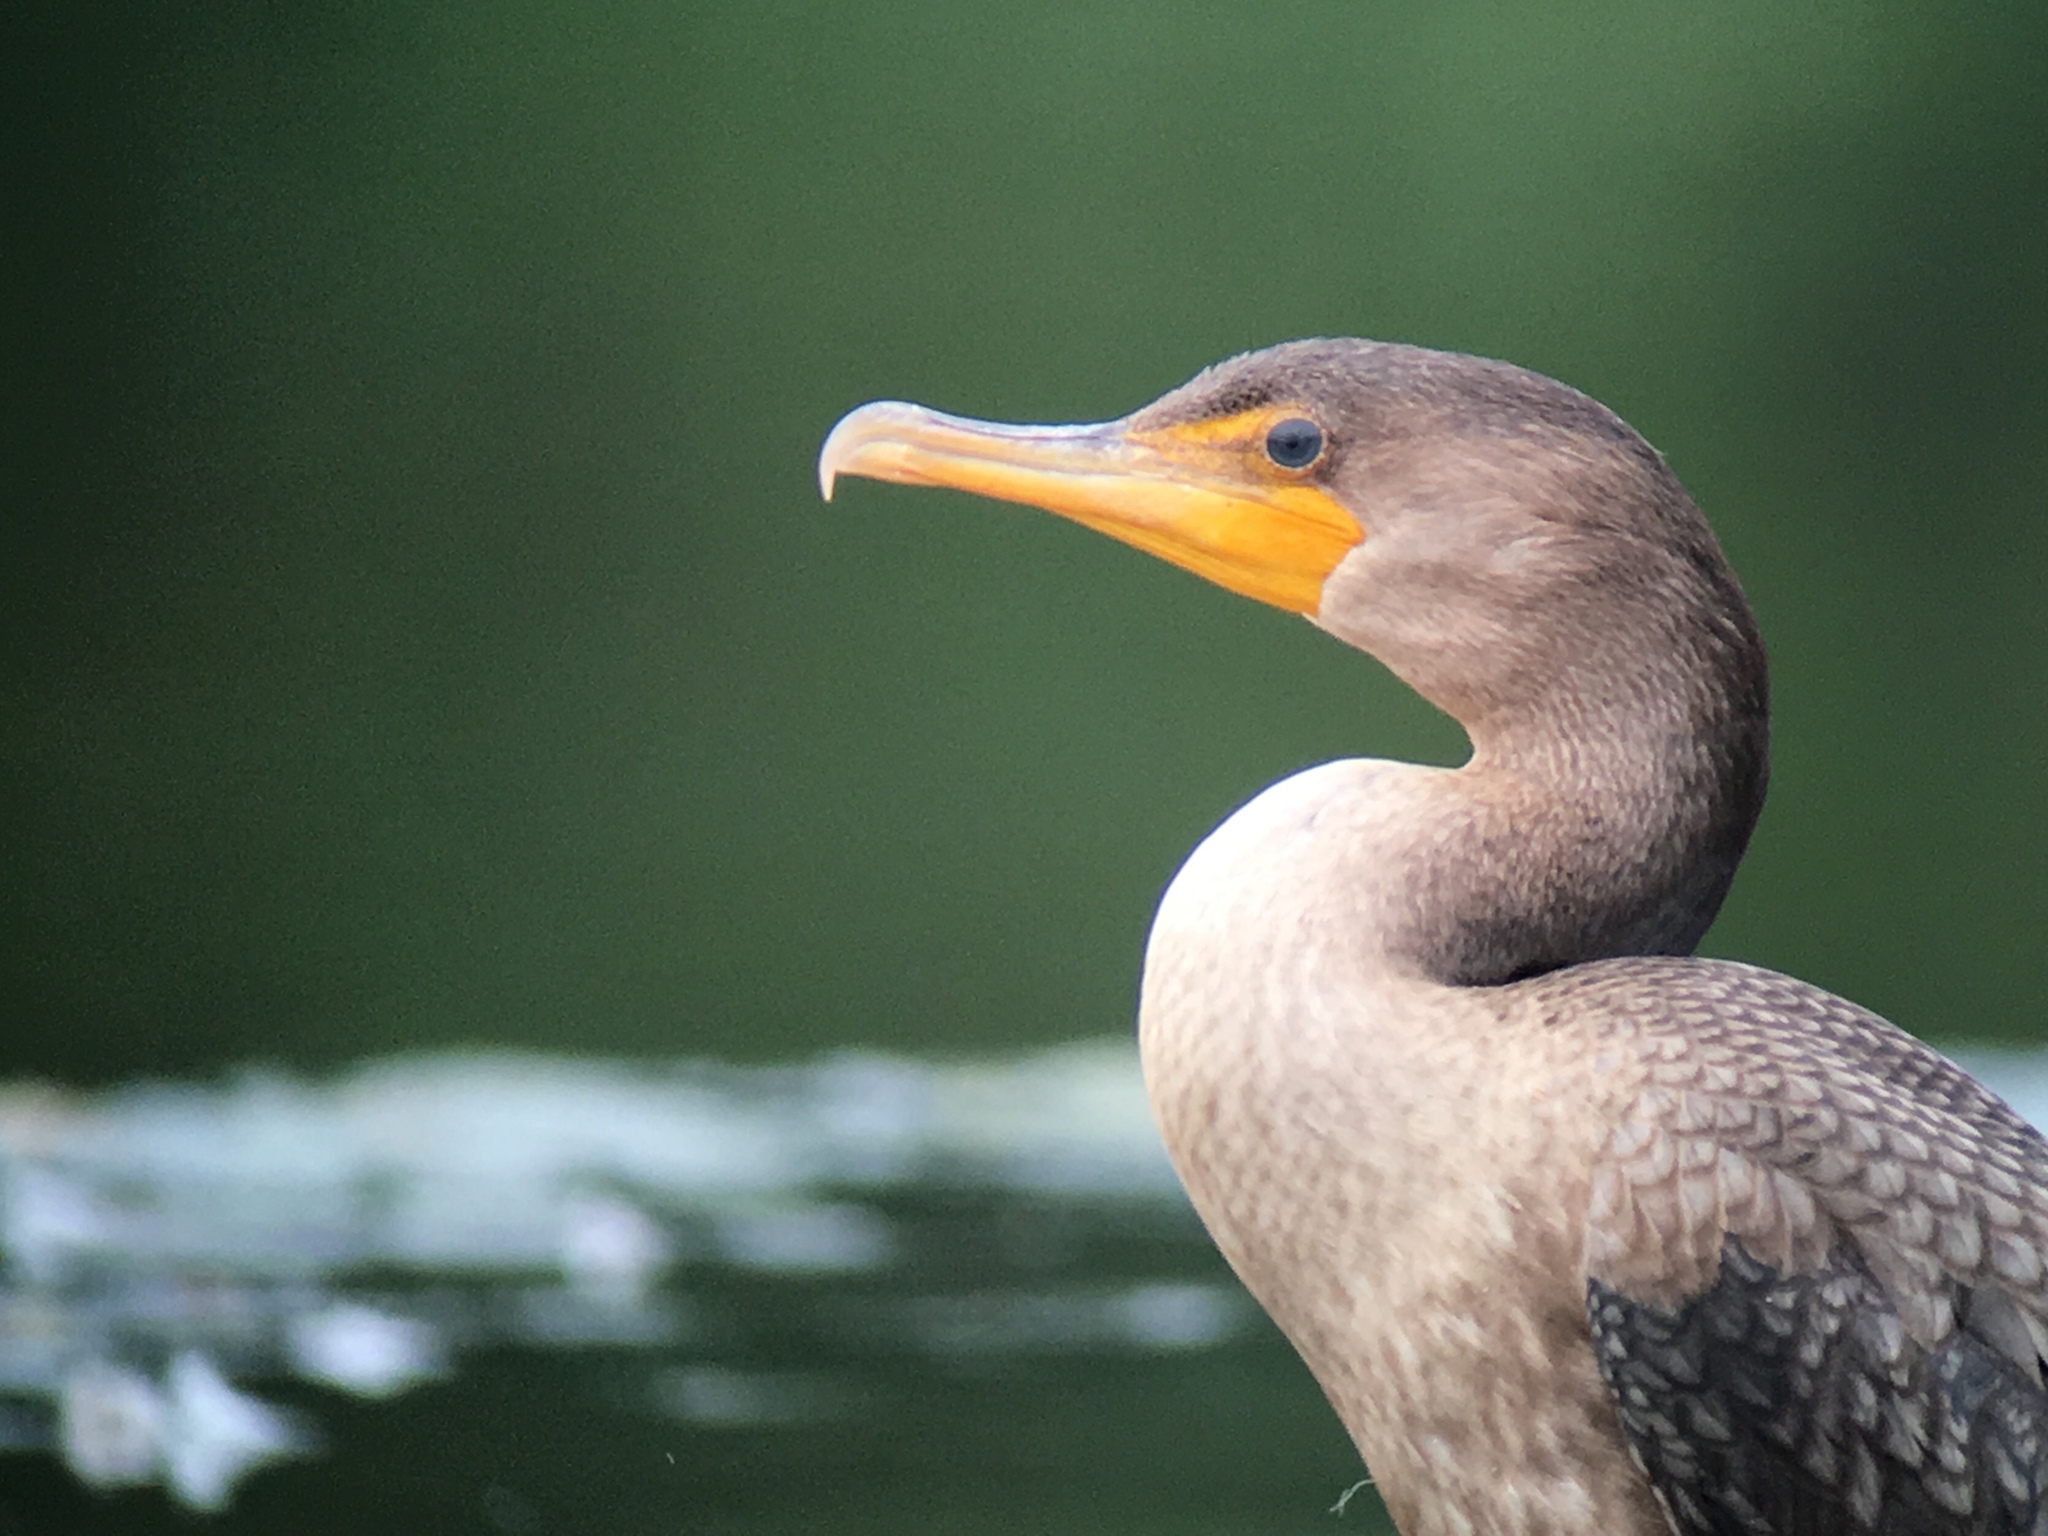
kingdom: Animalia
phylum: Chordata
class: Aves
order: Suliformes
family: Phalacrocoracidae
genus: Phalacrocorax
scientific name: Phalacrocorax auritus
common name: Double-crested cormorant
